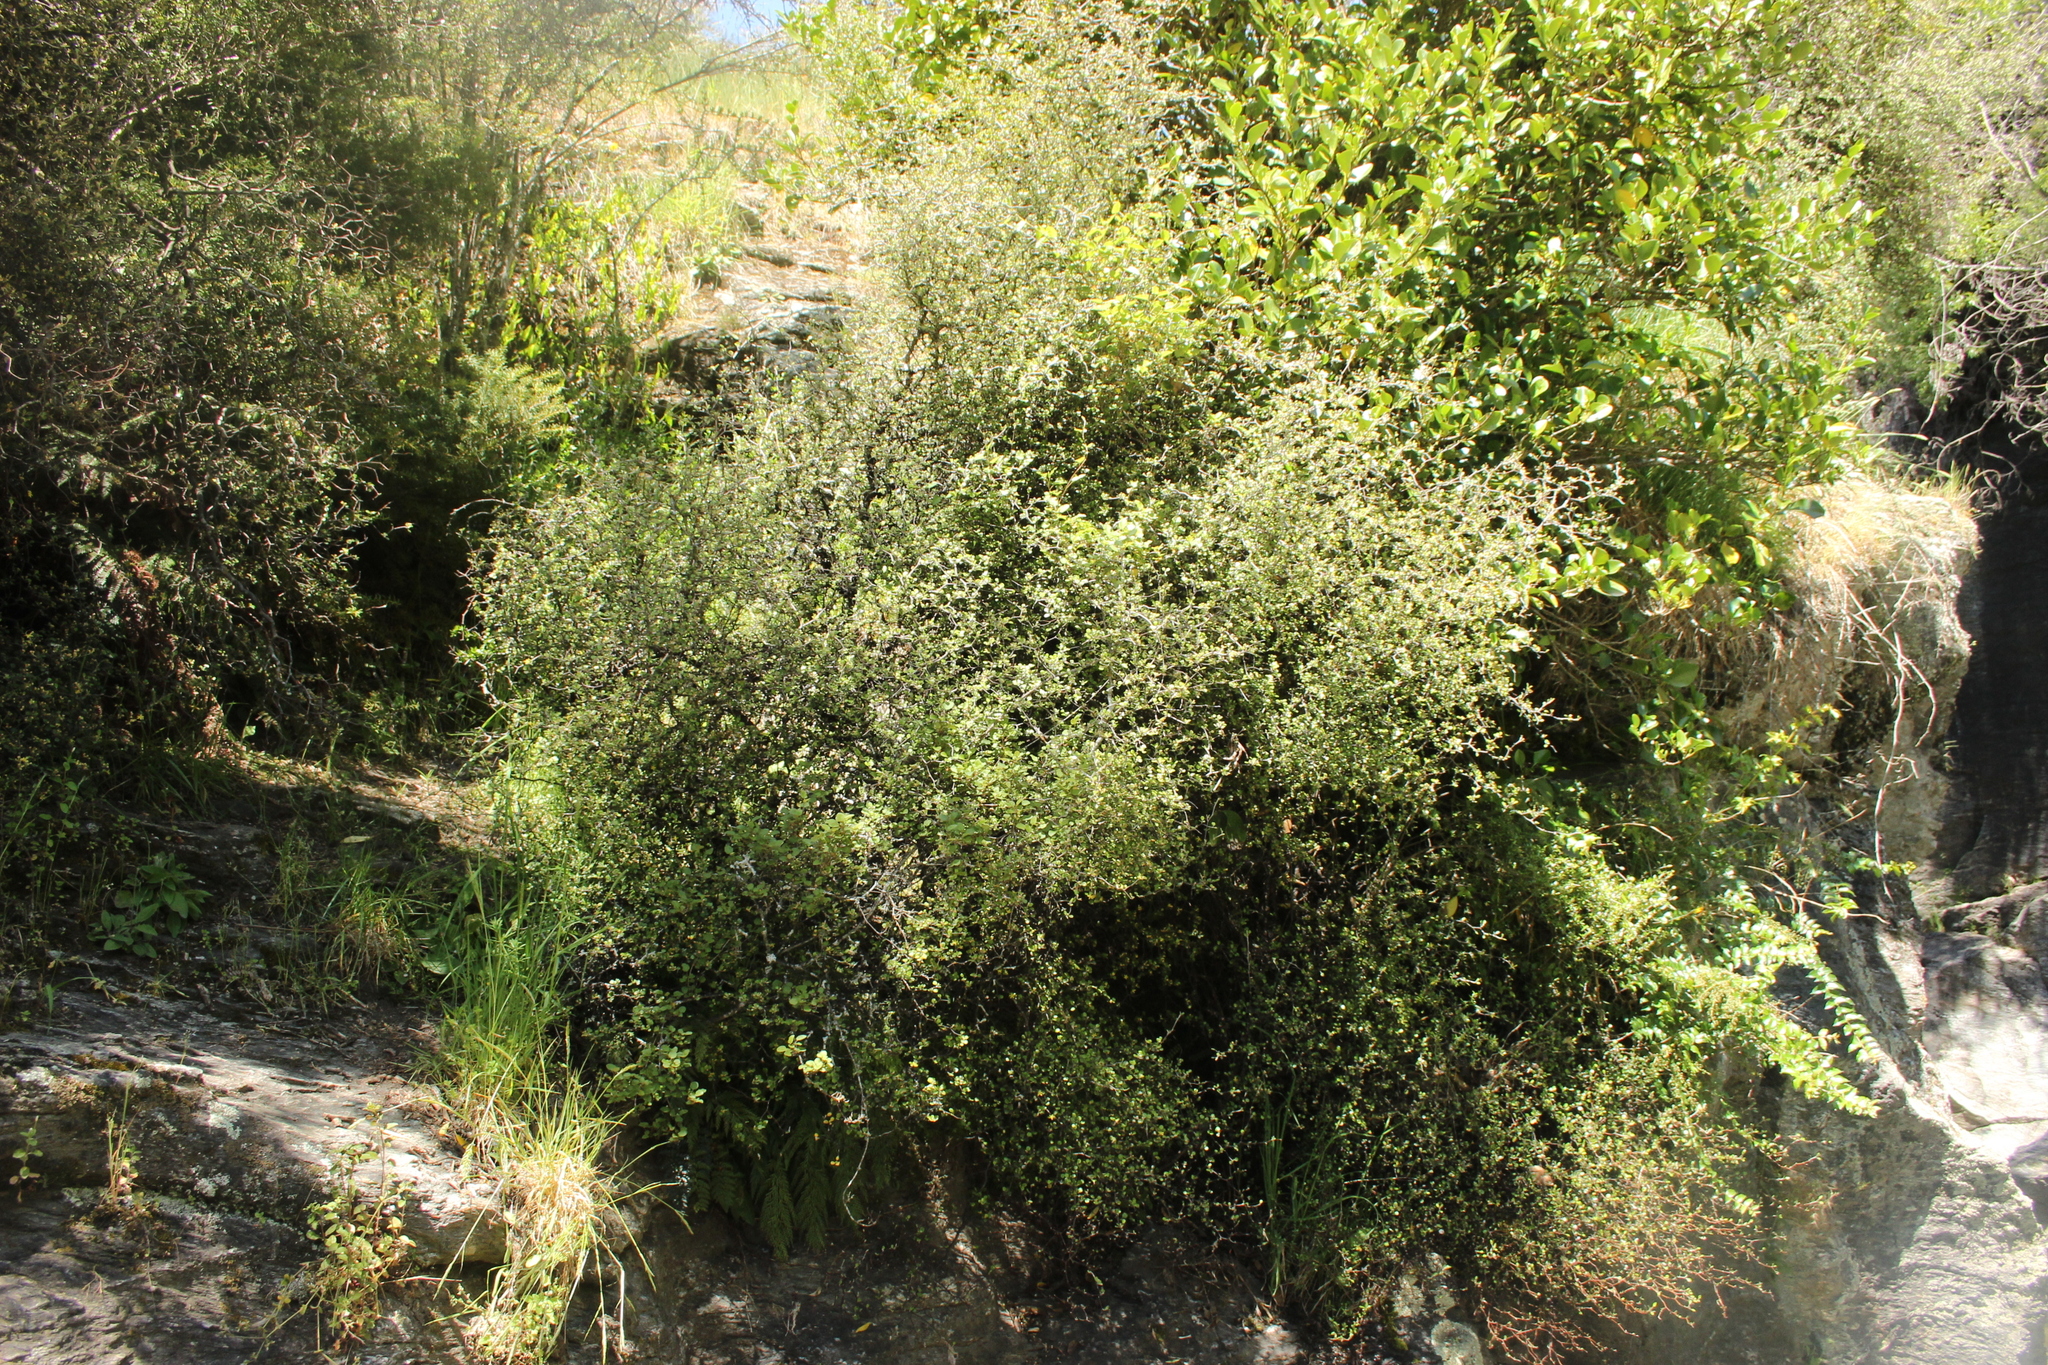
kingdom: Plantae
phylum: Tracheophyta
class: Magnoliopsida
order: Asterales
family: Argophyllaceae
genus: Corokia
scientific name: Corokia cotoneaster
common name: Wire nettingbush
